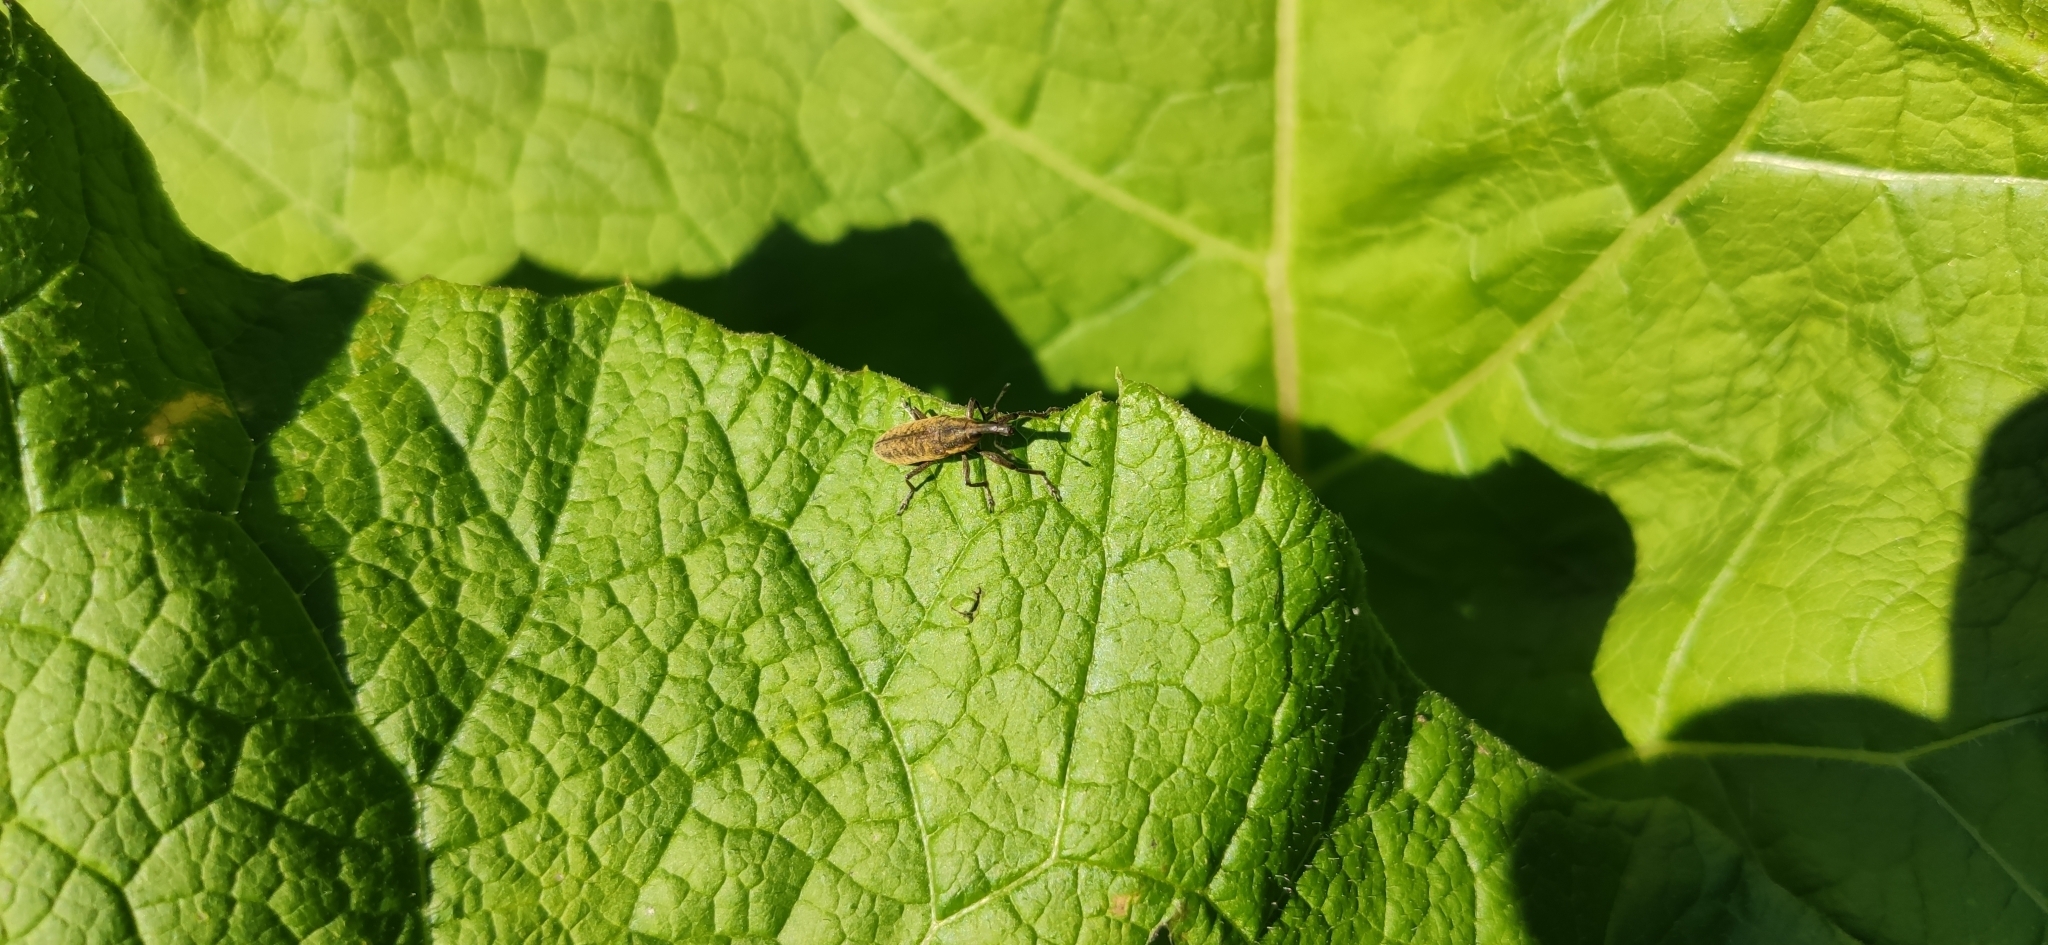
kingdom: Animalia
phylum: Arthropoda
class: Insecta
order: Coleoptera
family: Curculionidae
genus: Lixus
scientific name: Lixus fasciculatus
